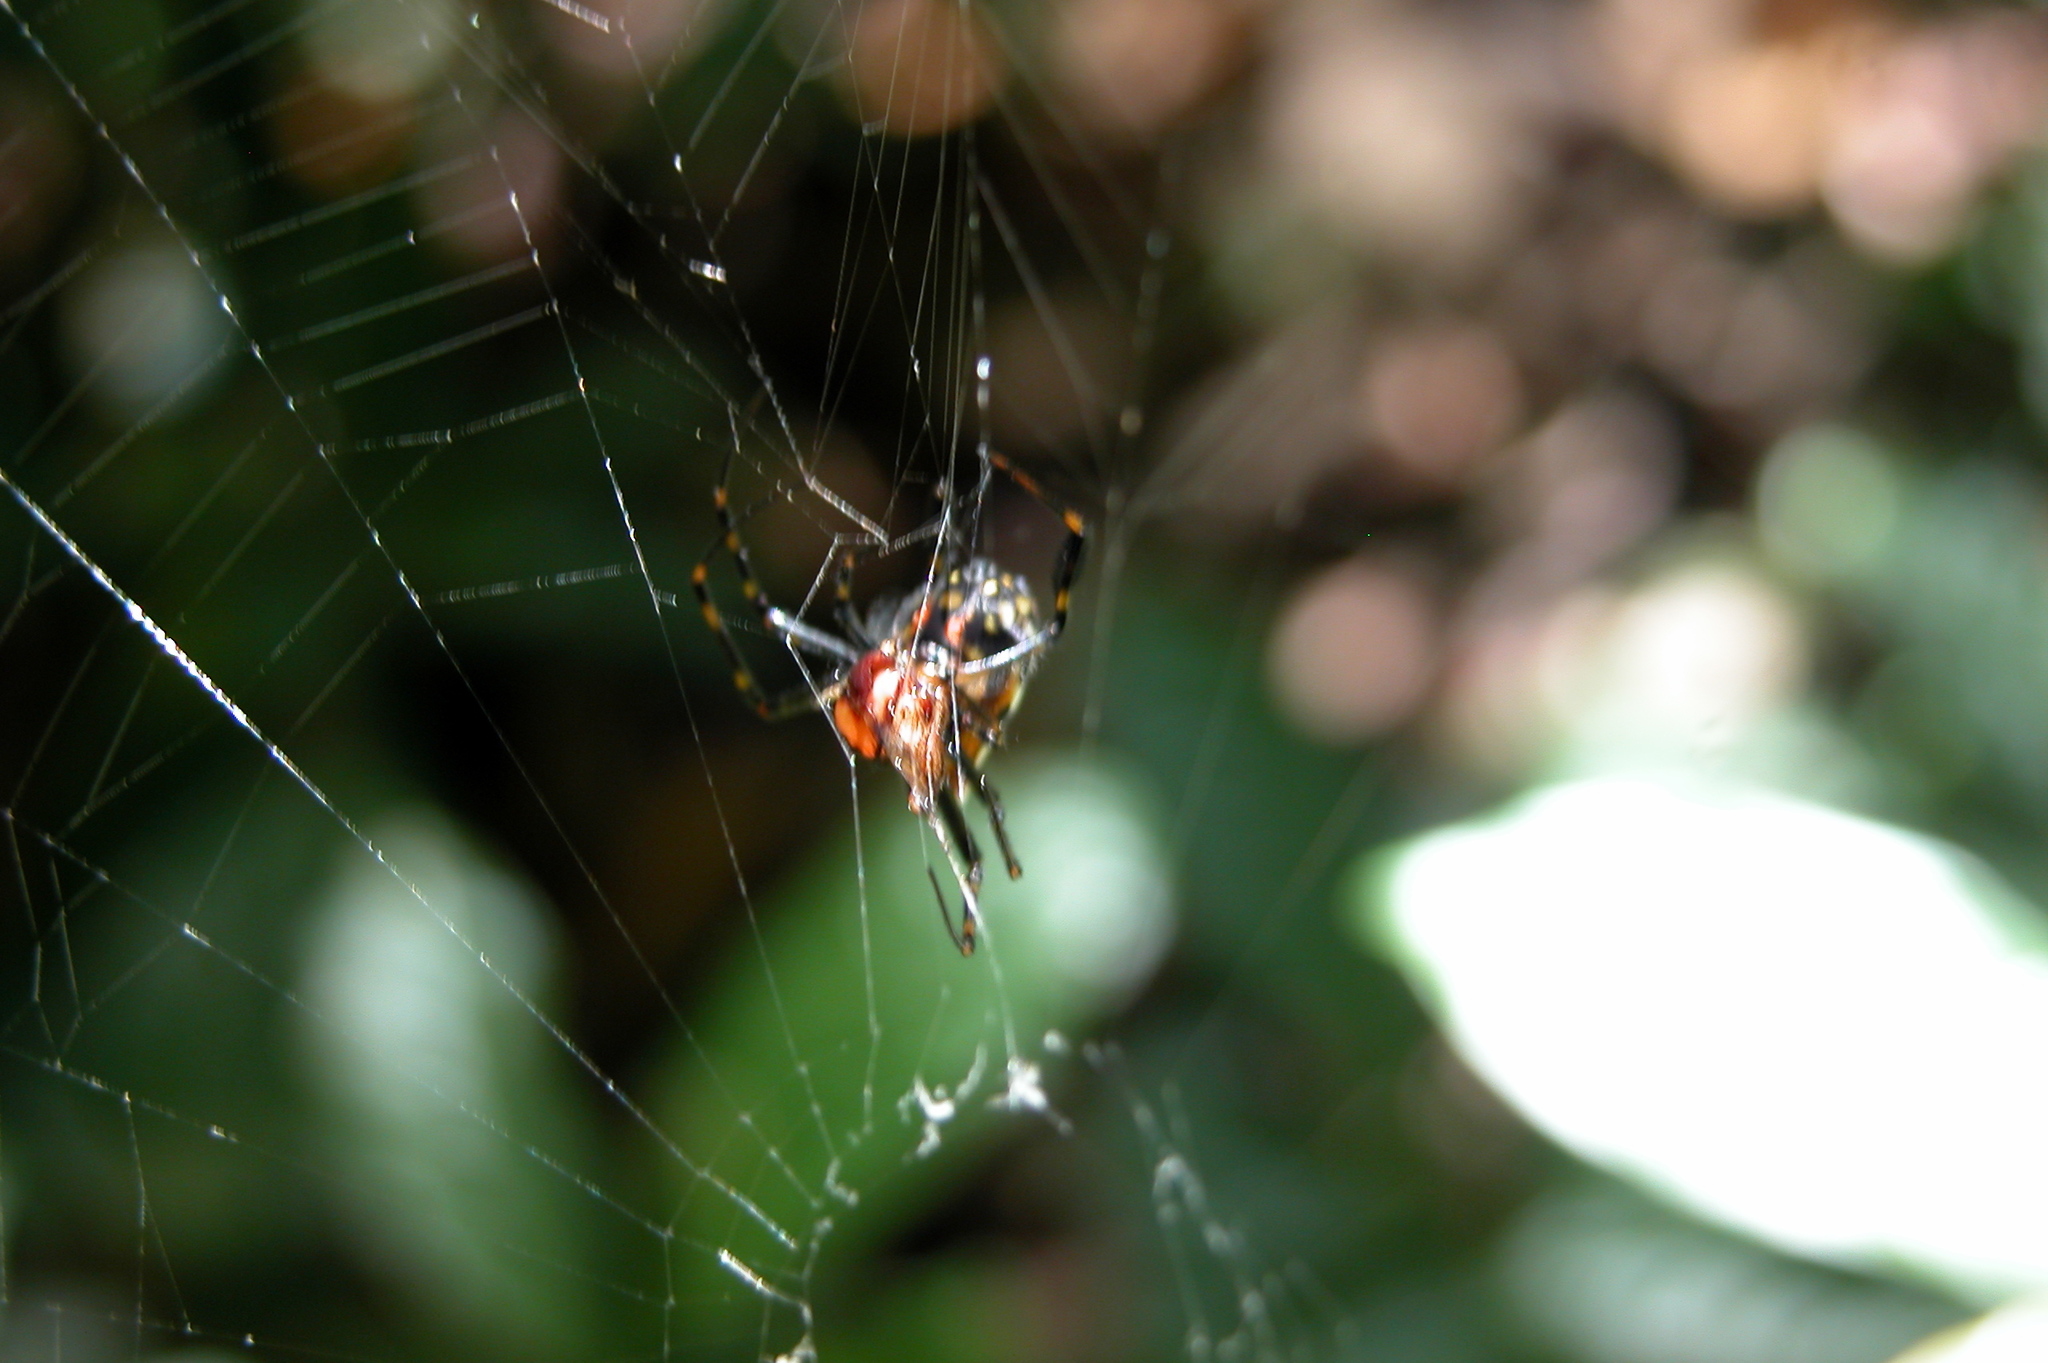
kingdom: Animalia
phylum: Arthropoda
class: Arachnida
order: Araneae
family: Tetragnathidae
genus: Leucauge
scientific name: Leucauge fastigata
